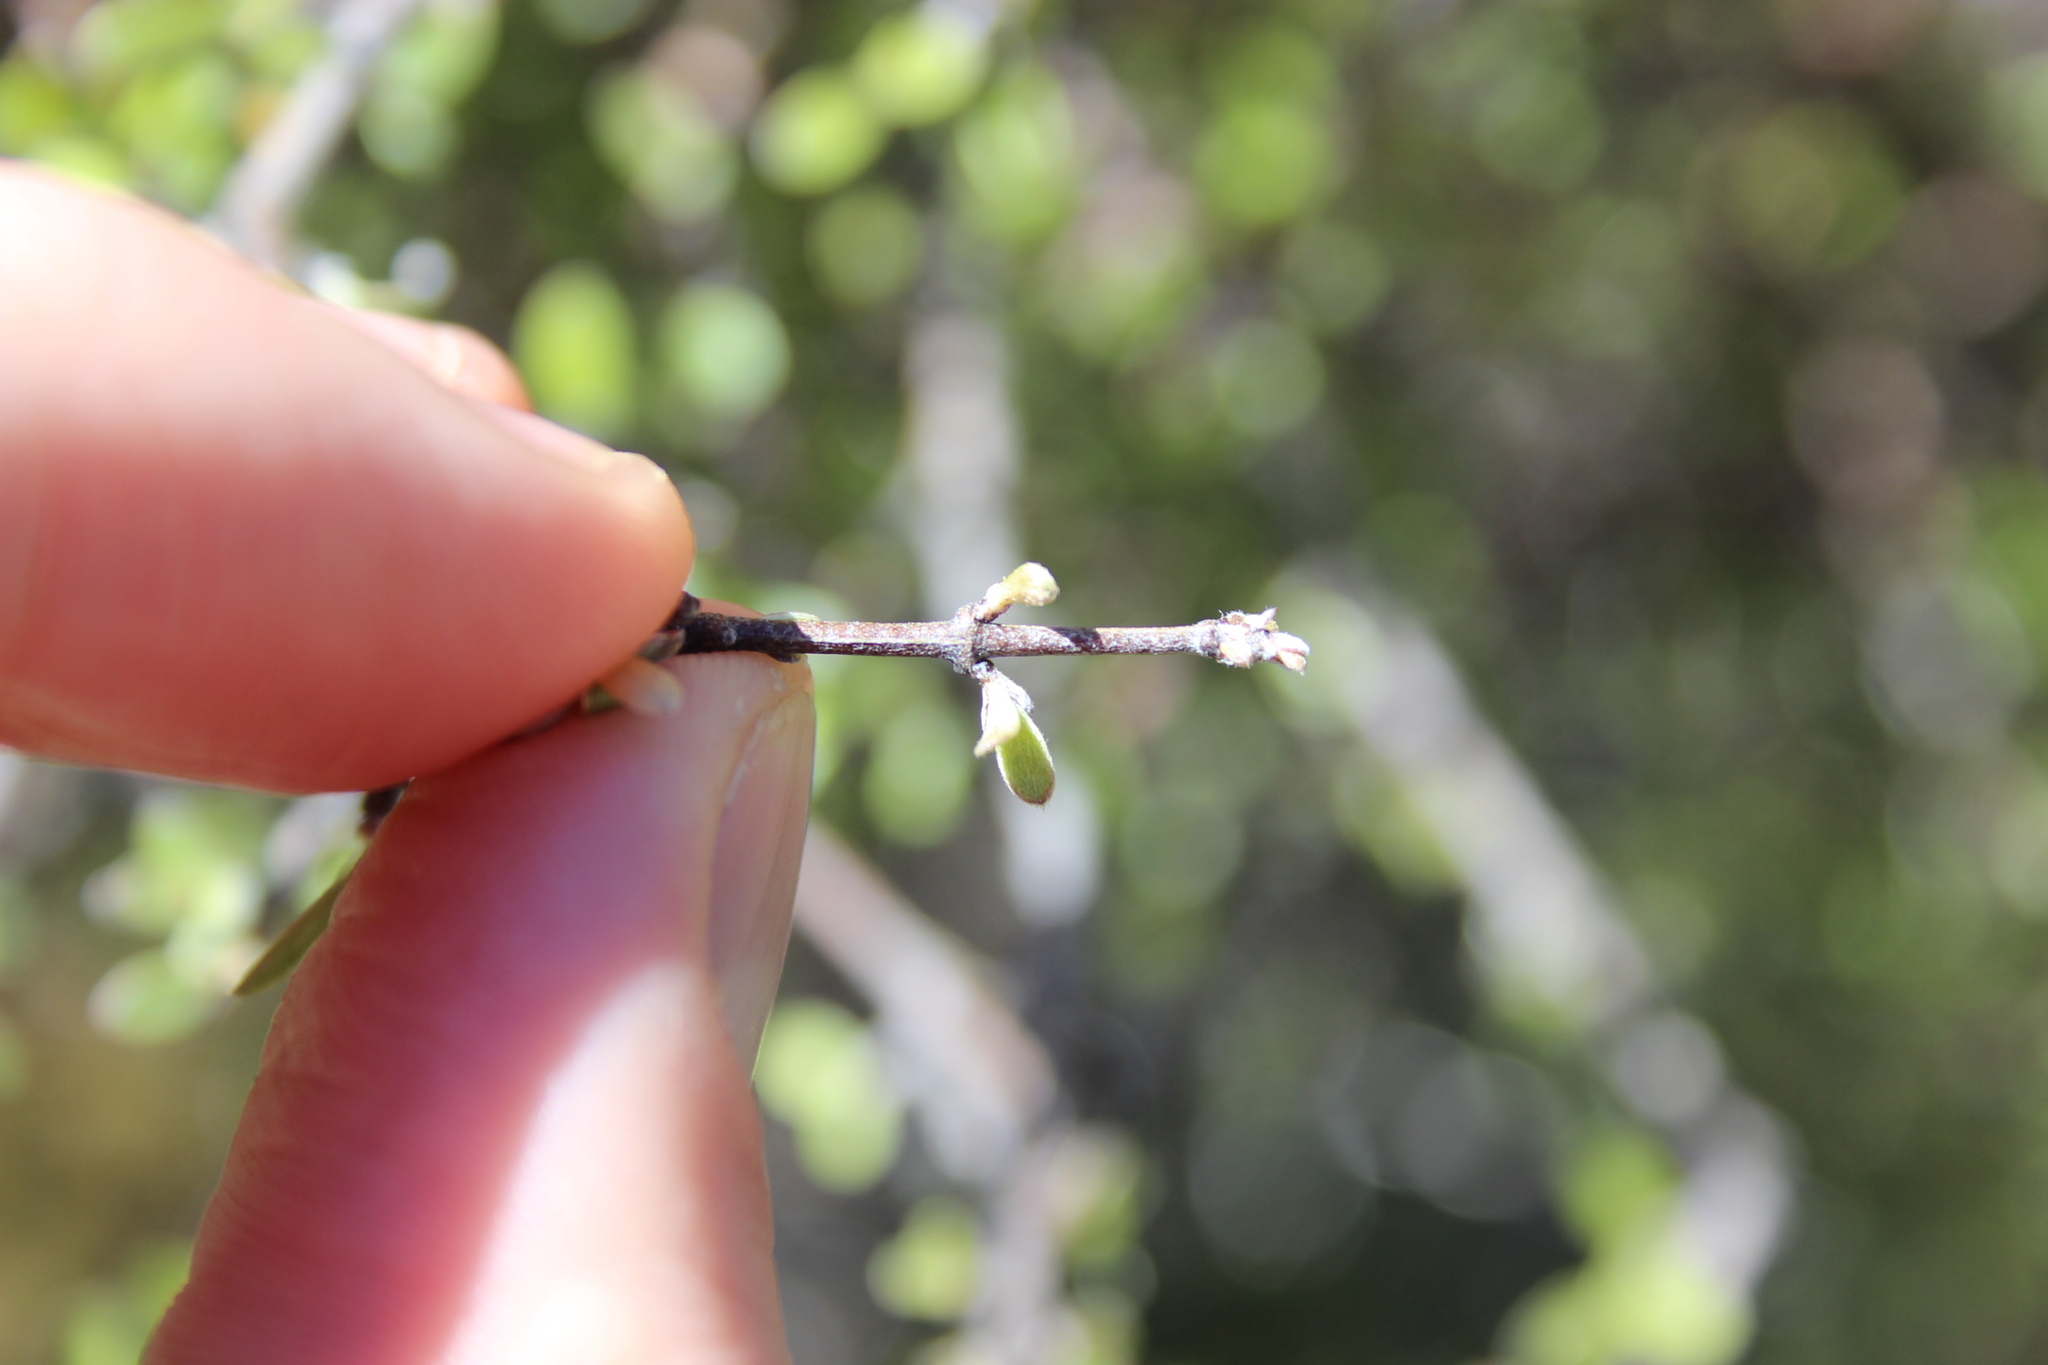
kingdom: Plantae
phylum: Tracheophyta
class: Magnoliopsida
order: Asterales
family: Asteraceae
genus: Olearia
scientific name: Olearia odorata
